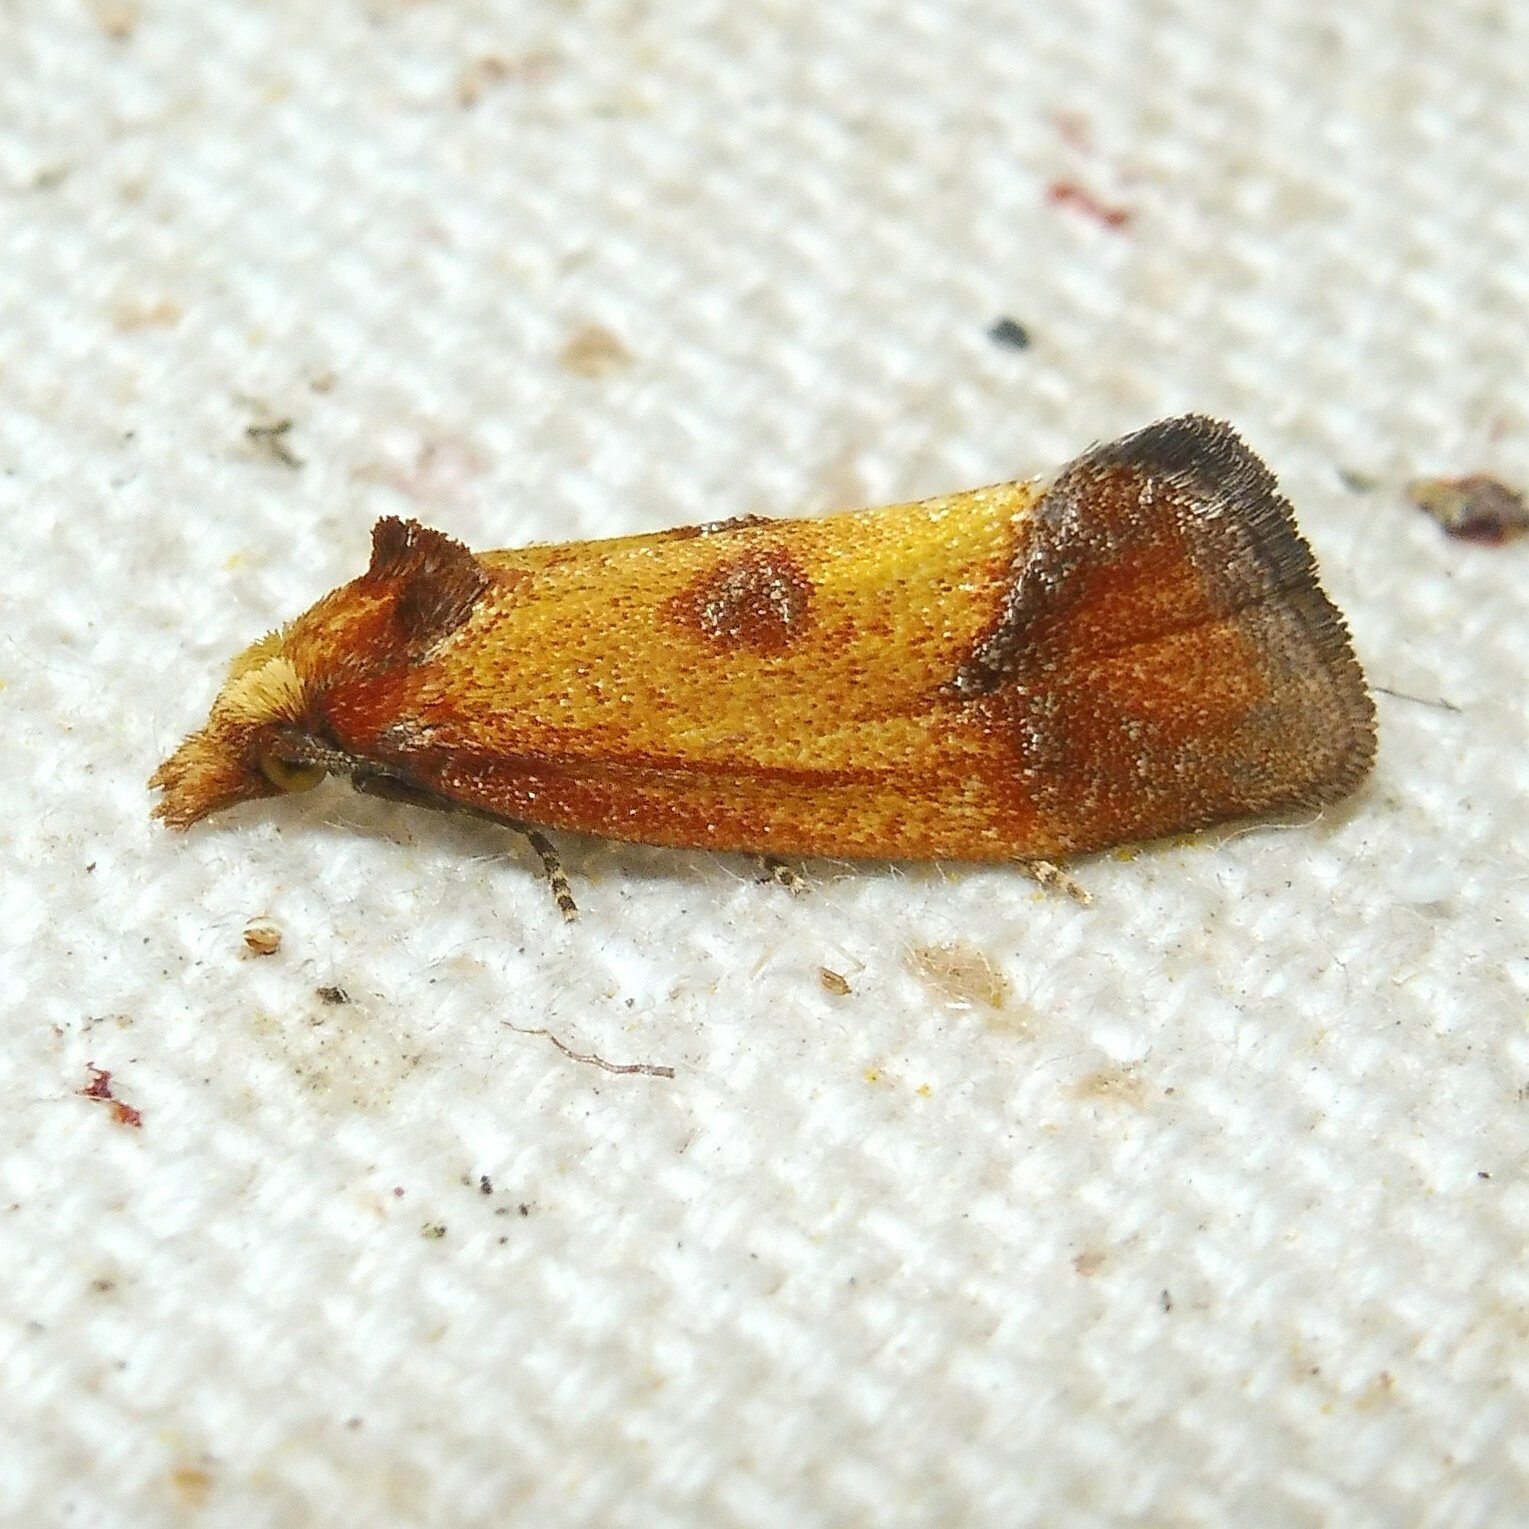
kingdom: Animalia
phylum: Arthropoda
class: Insecta
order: Lepidoptera
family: Tortricidae
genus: Agapeta
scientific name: Agapeta zoegana
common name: Sulfur knapweed root moth
